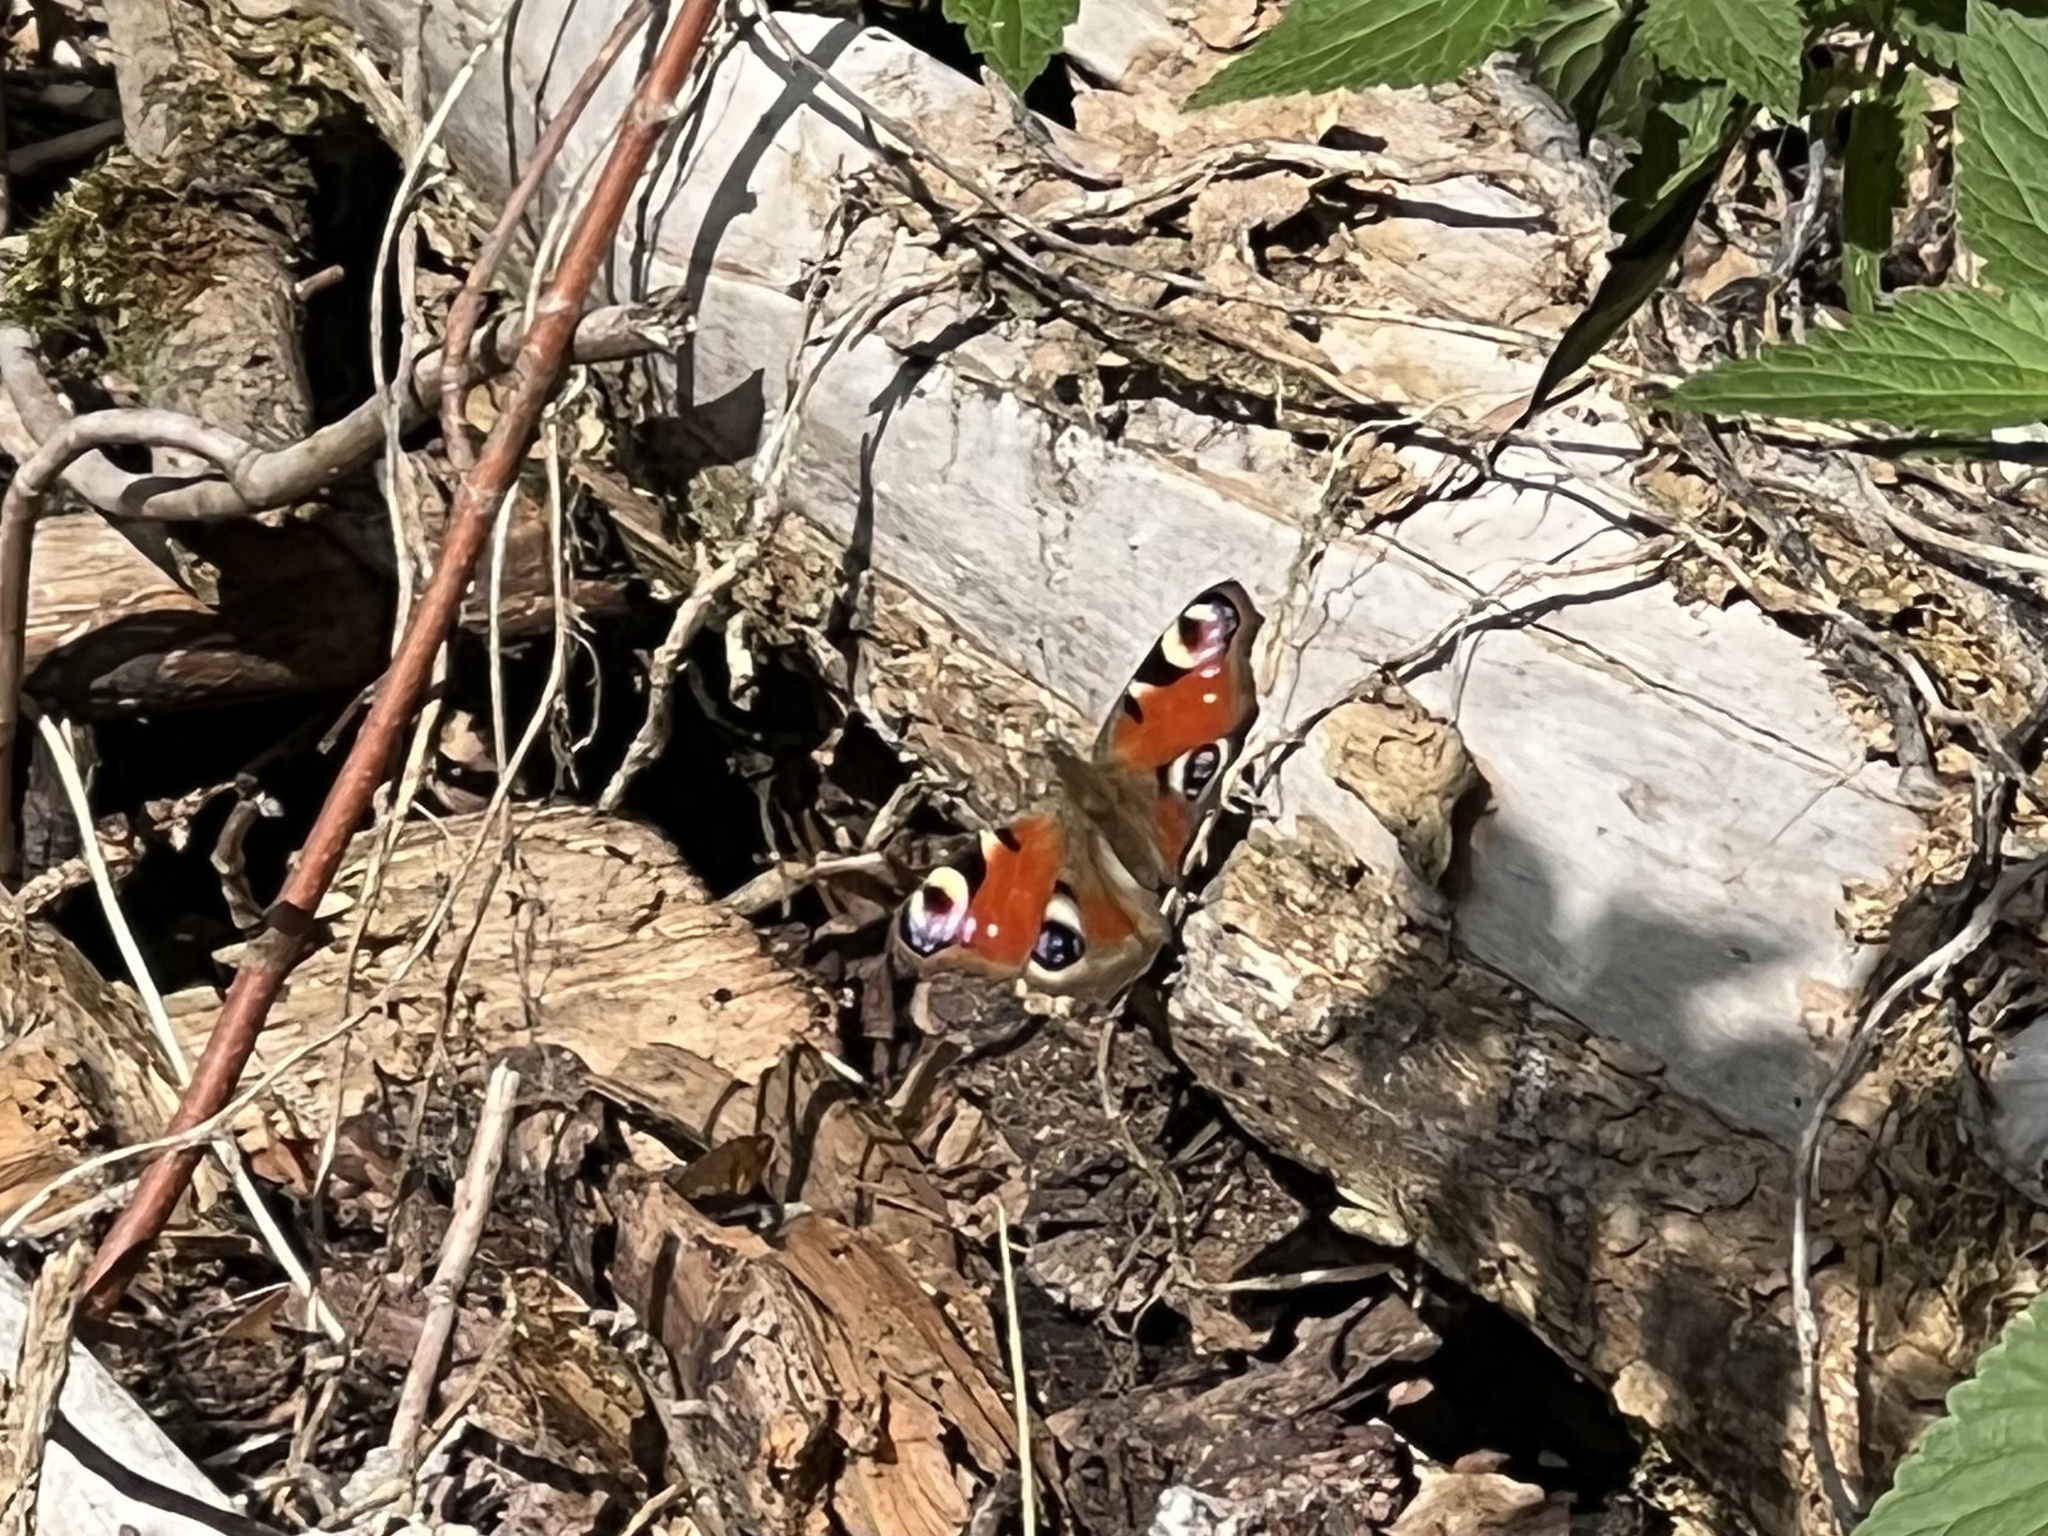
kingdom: Animalia
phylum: Arthropoda
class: Insecta
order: Lepidoptera
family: Nymphalidae
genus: Aglais
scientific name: Aglais io
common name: Peacock
